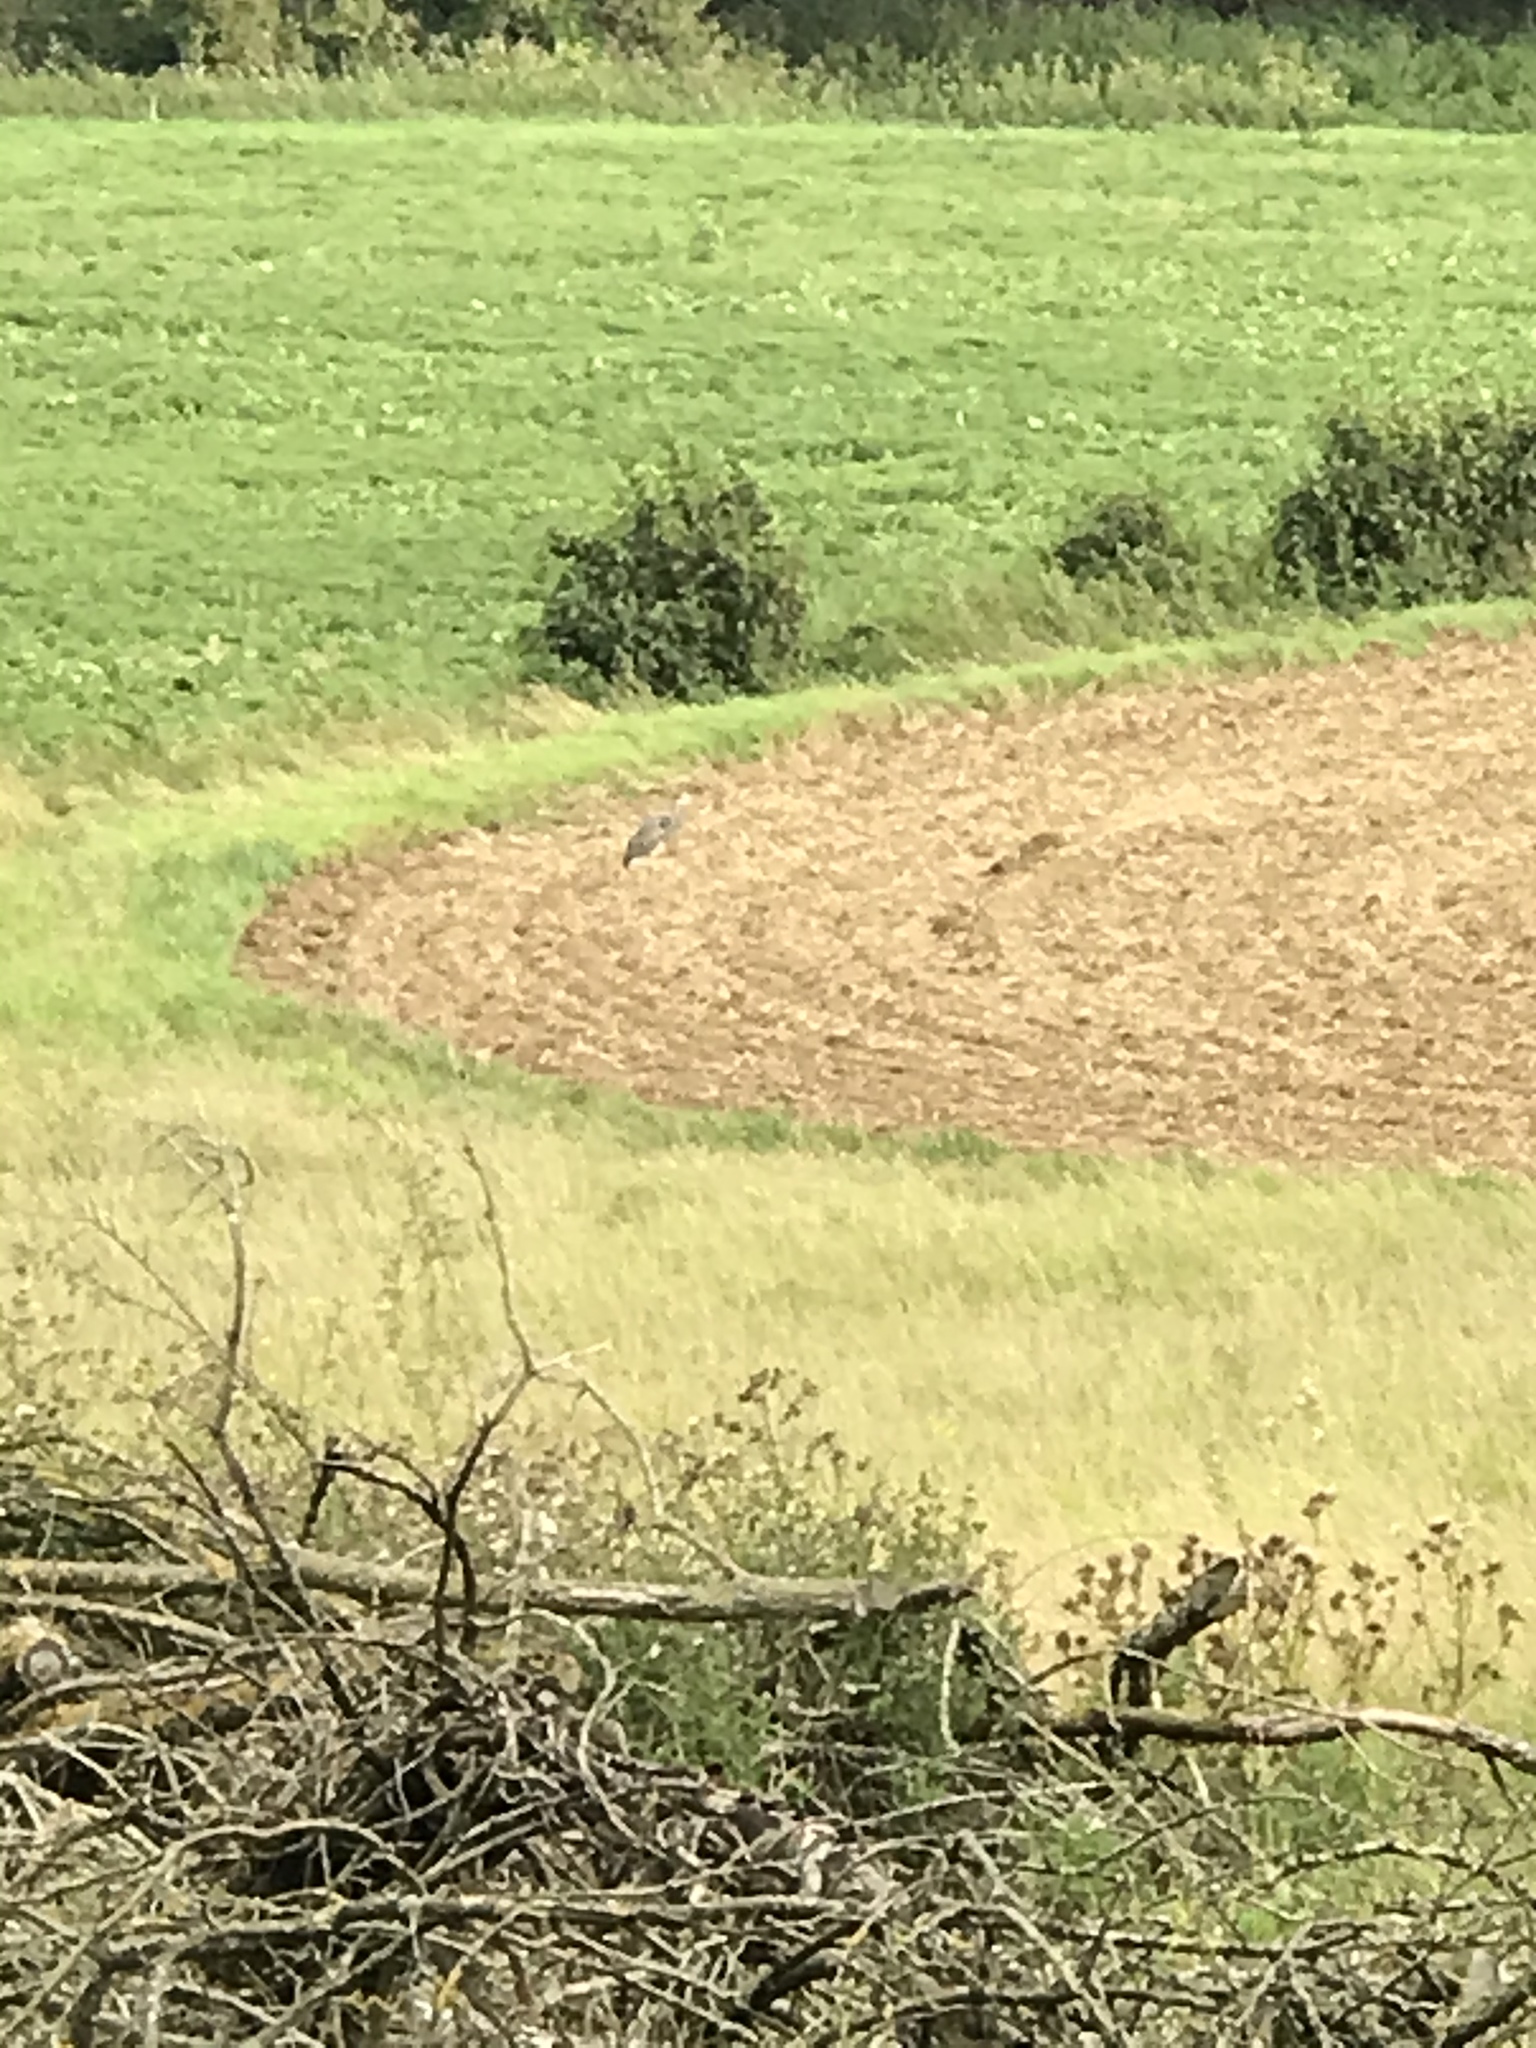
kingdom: Animalia
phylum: Chordata
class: Aves
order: Pelecaniformes
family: Ardeidae
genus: Ardea
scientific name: Ardea cinerea
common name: Grey heron
